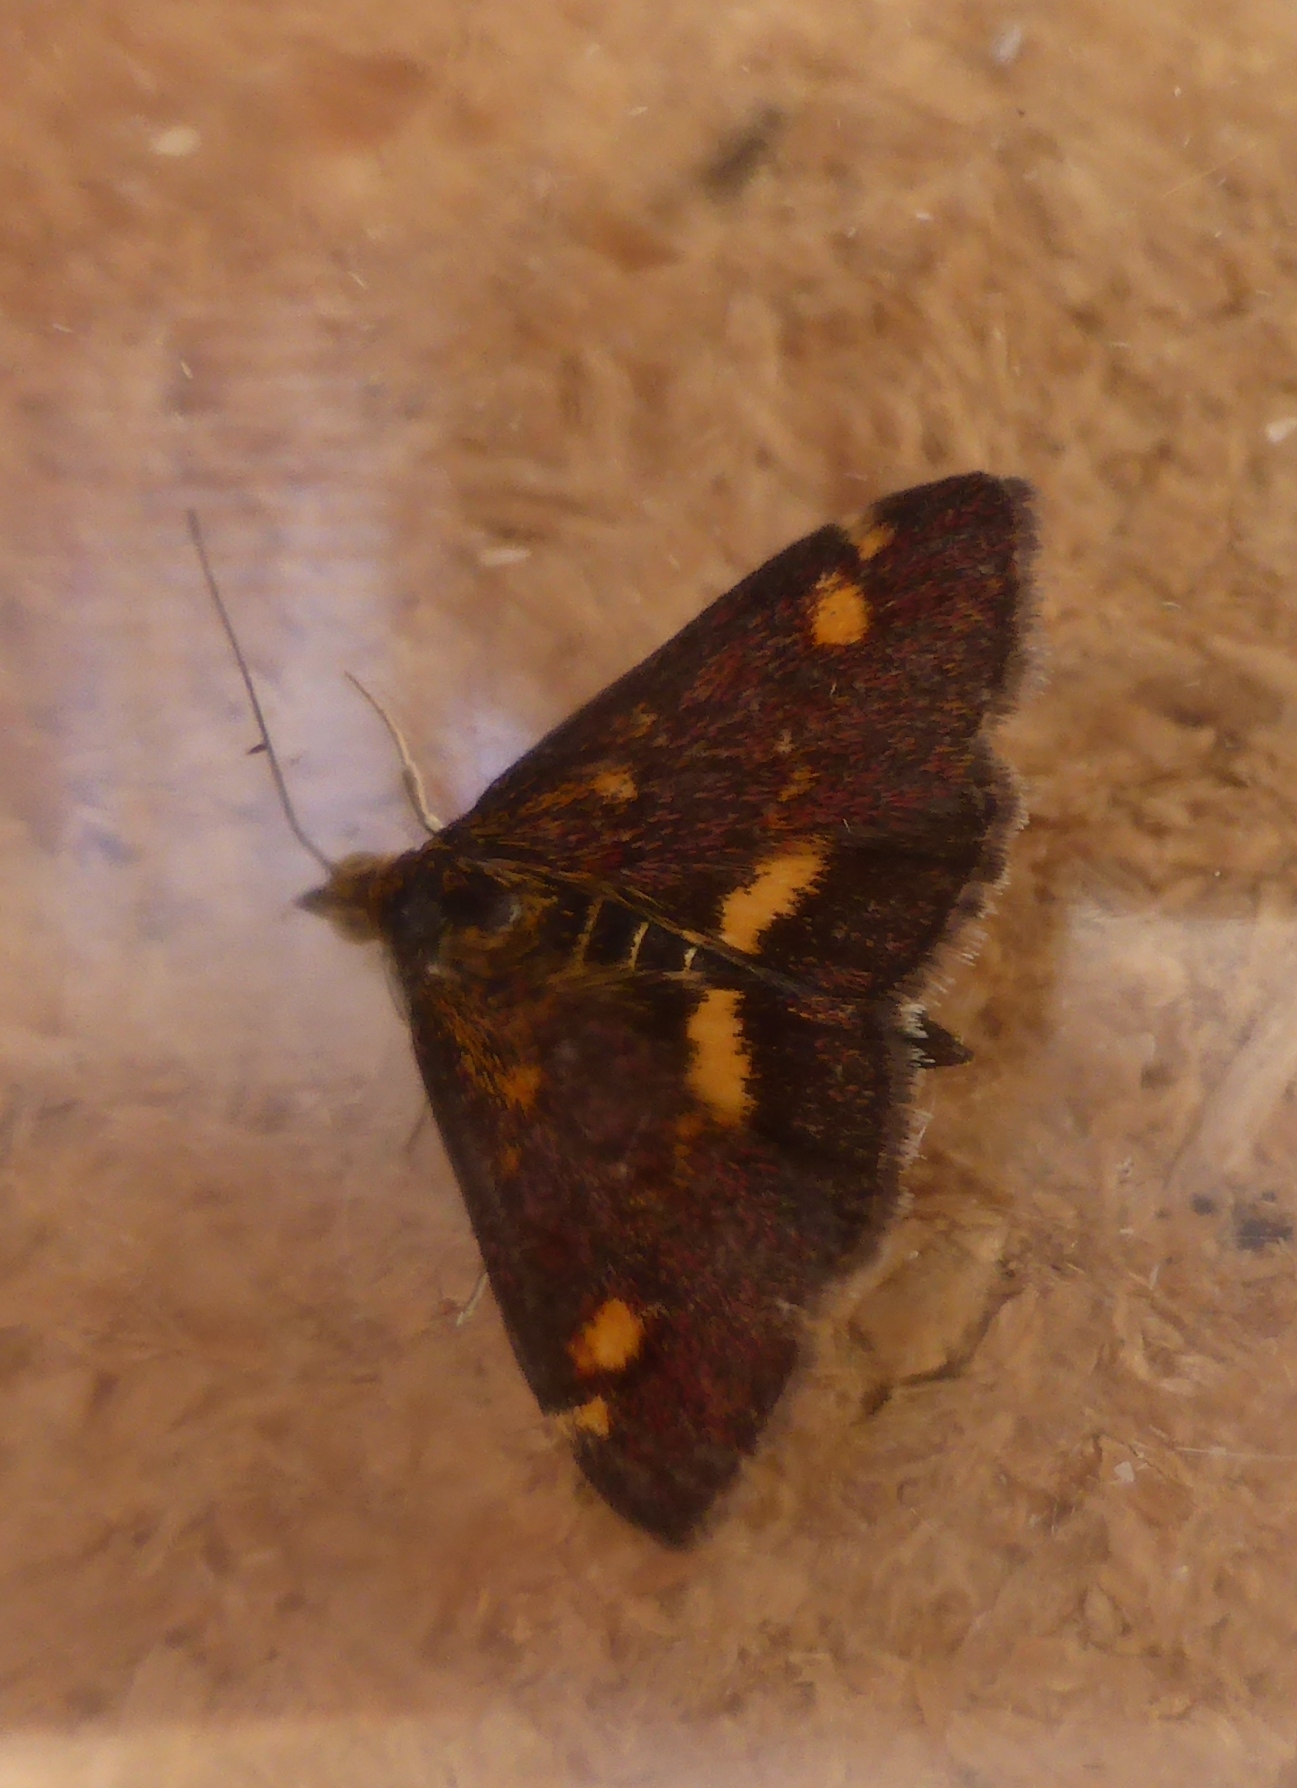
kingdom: Animalia
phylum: Arthropoda
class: Insecta
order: Lepidoptera
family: Crambidae
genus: Pyrausta
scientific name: Pyrausta aurata
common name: Small purple & gold
